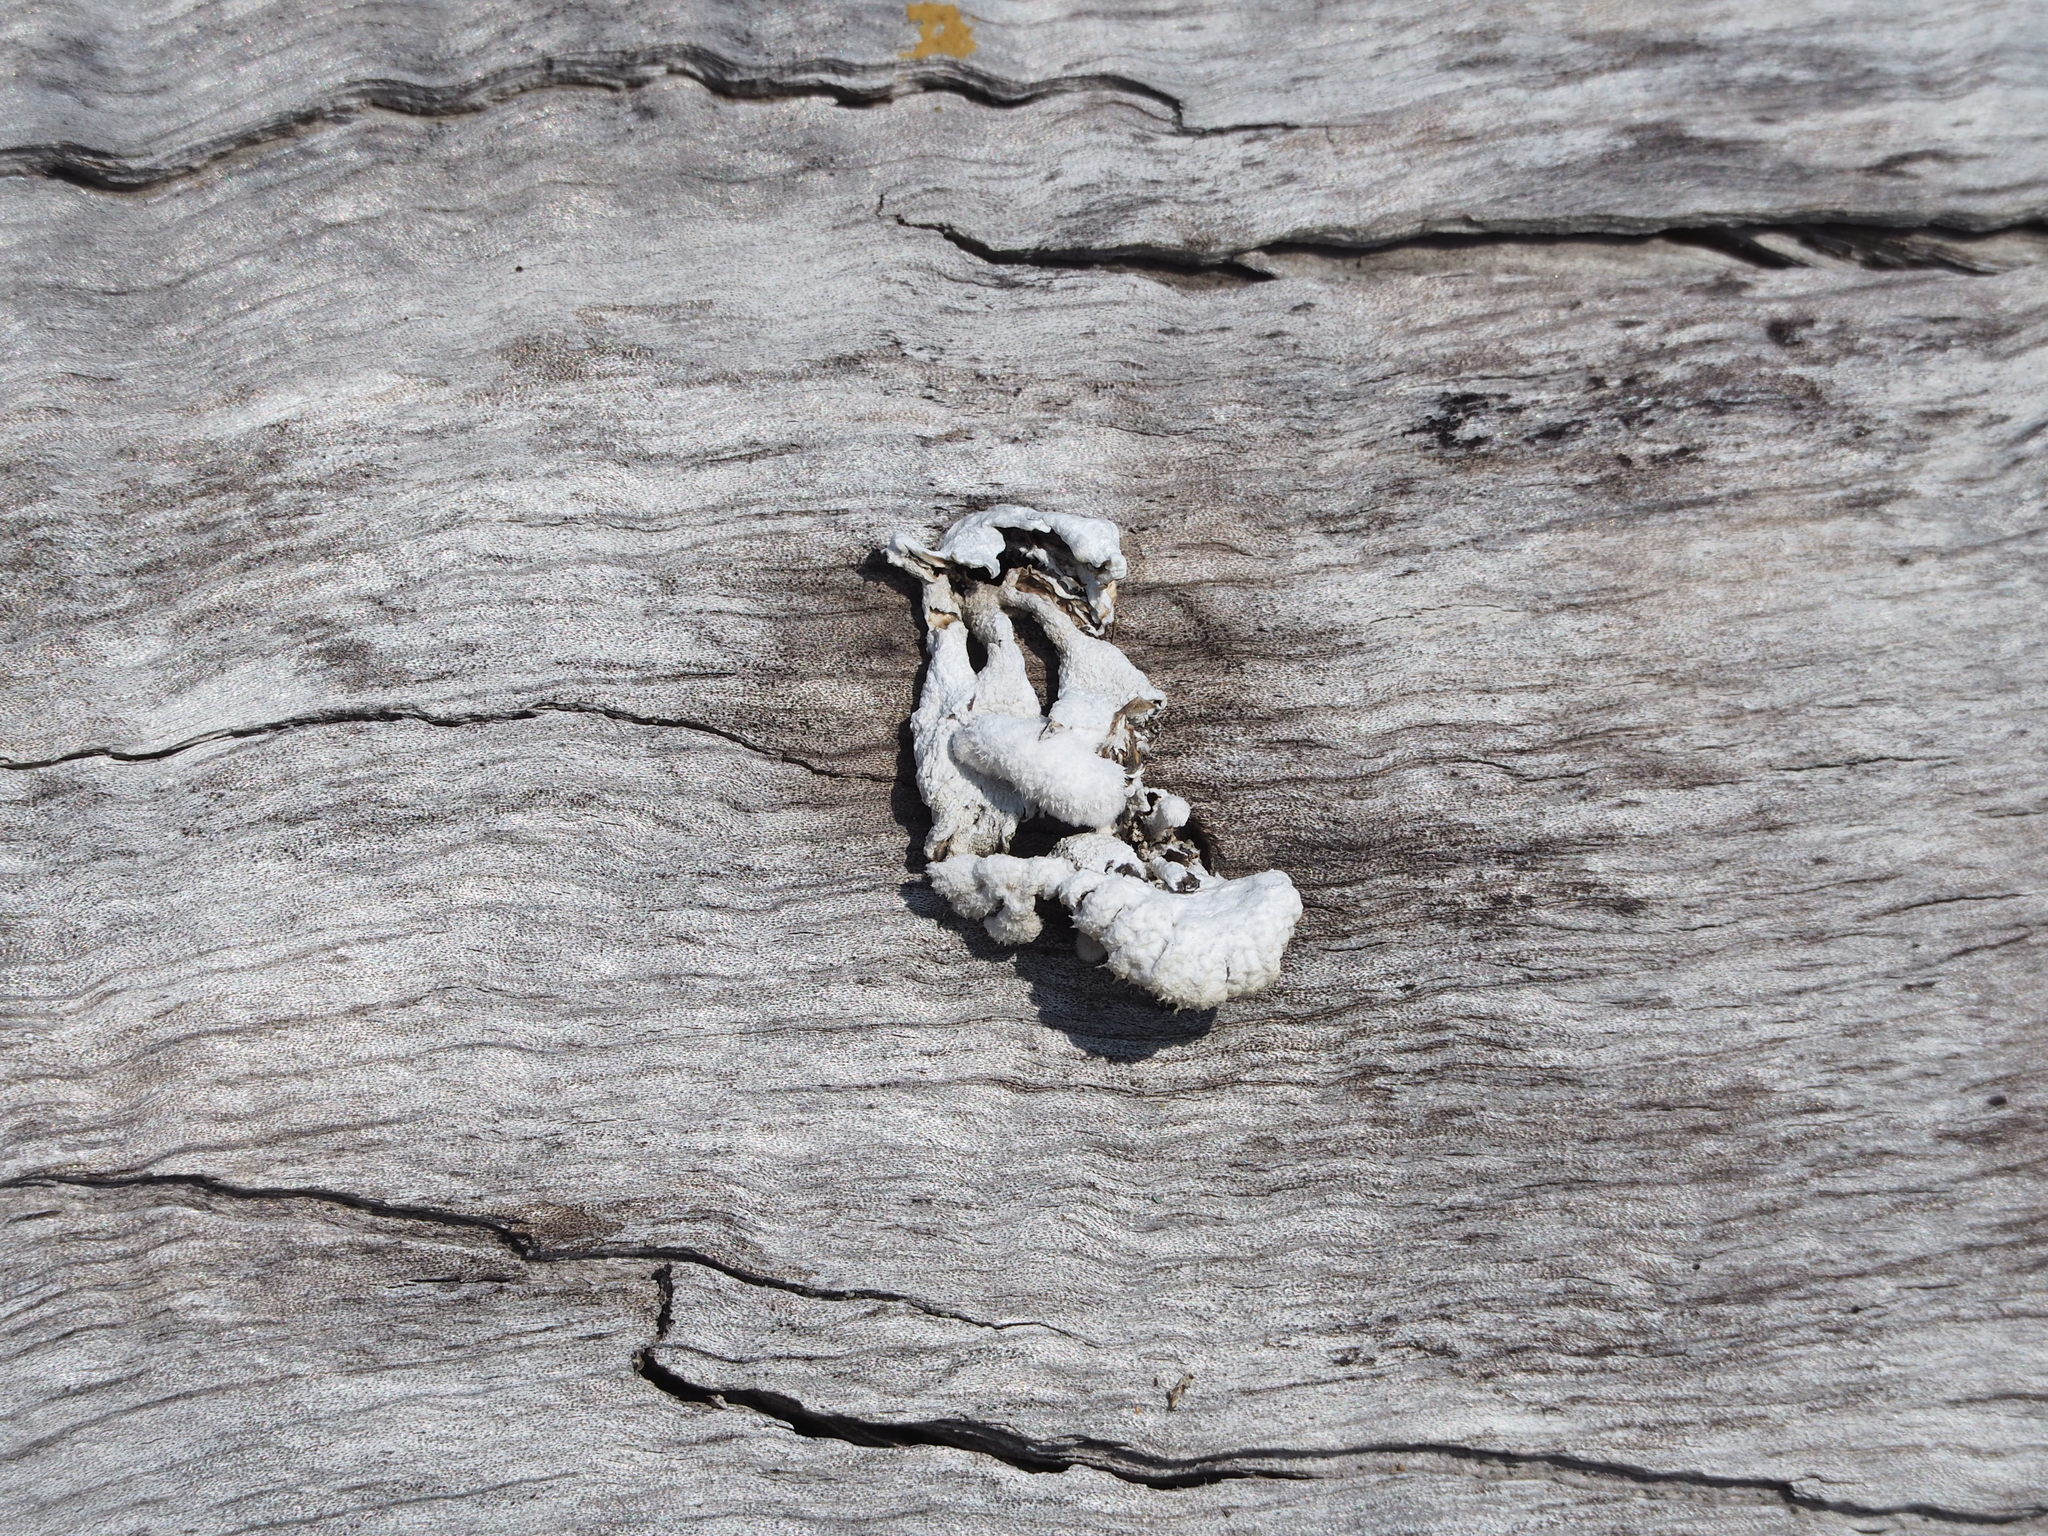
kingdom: Fungi
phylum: Basidiomycota
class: Agaricomycetes
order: Agaricales
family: Schizophyllaceae
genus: Schizophyllum
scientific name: Schizophyllum commune
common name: Common porecrust
